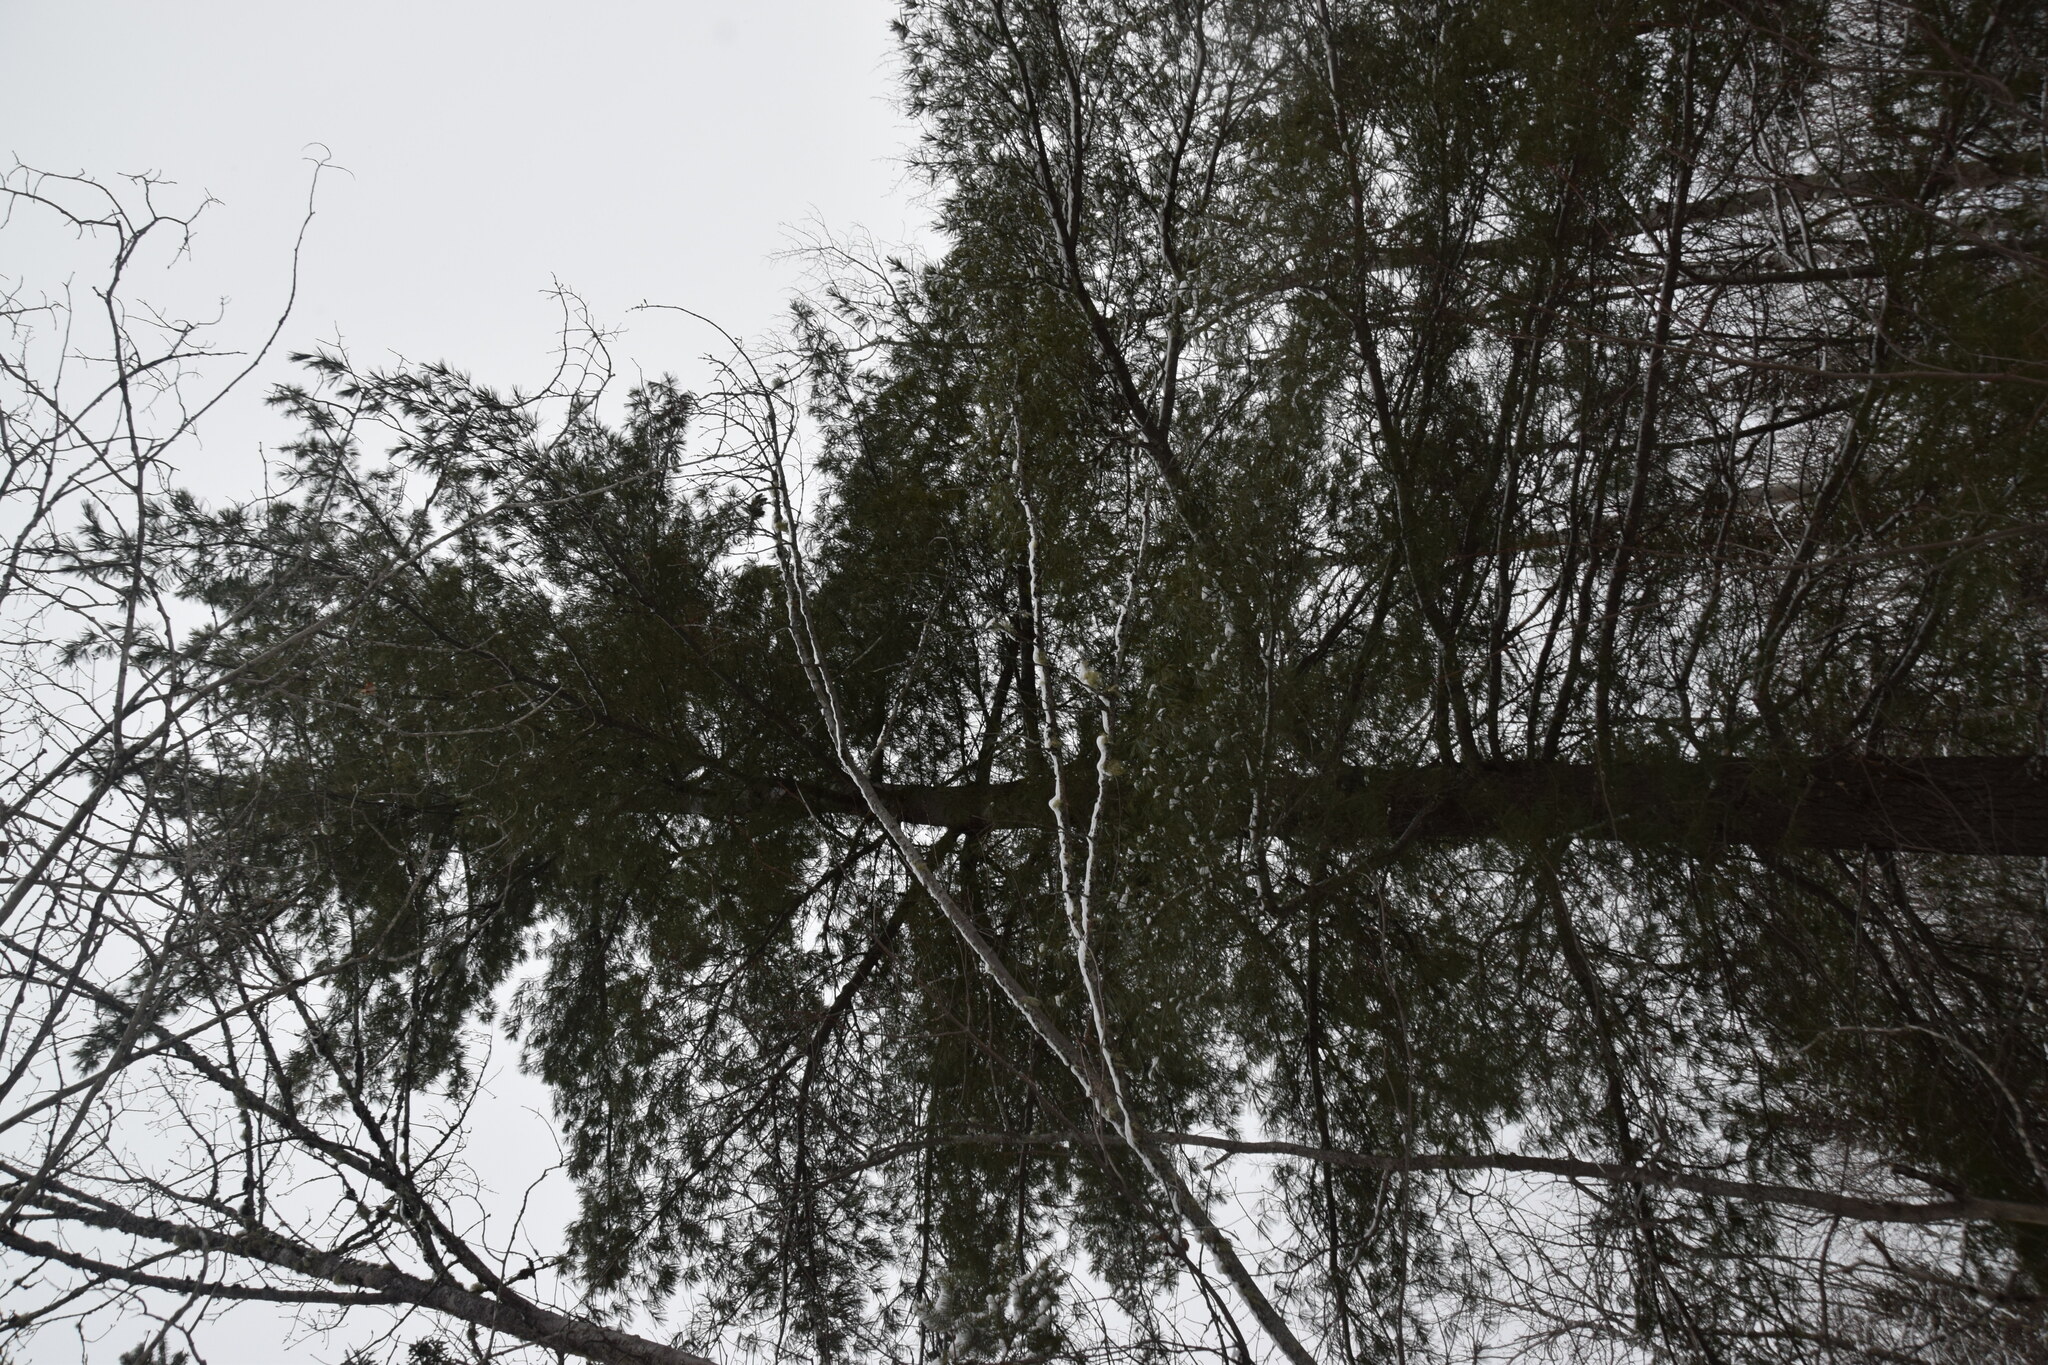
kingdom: Plantae
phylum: Tracheophyta
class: Pinopsida
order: Pinales
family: Pinaceae
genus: Pinus
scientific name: Pinus strobus
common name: Weymouth pine
